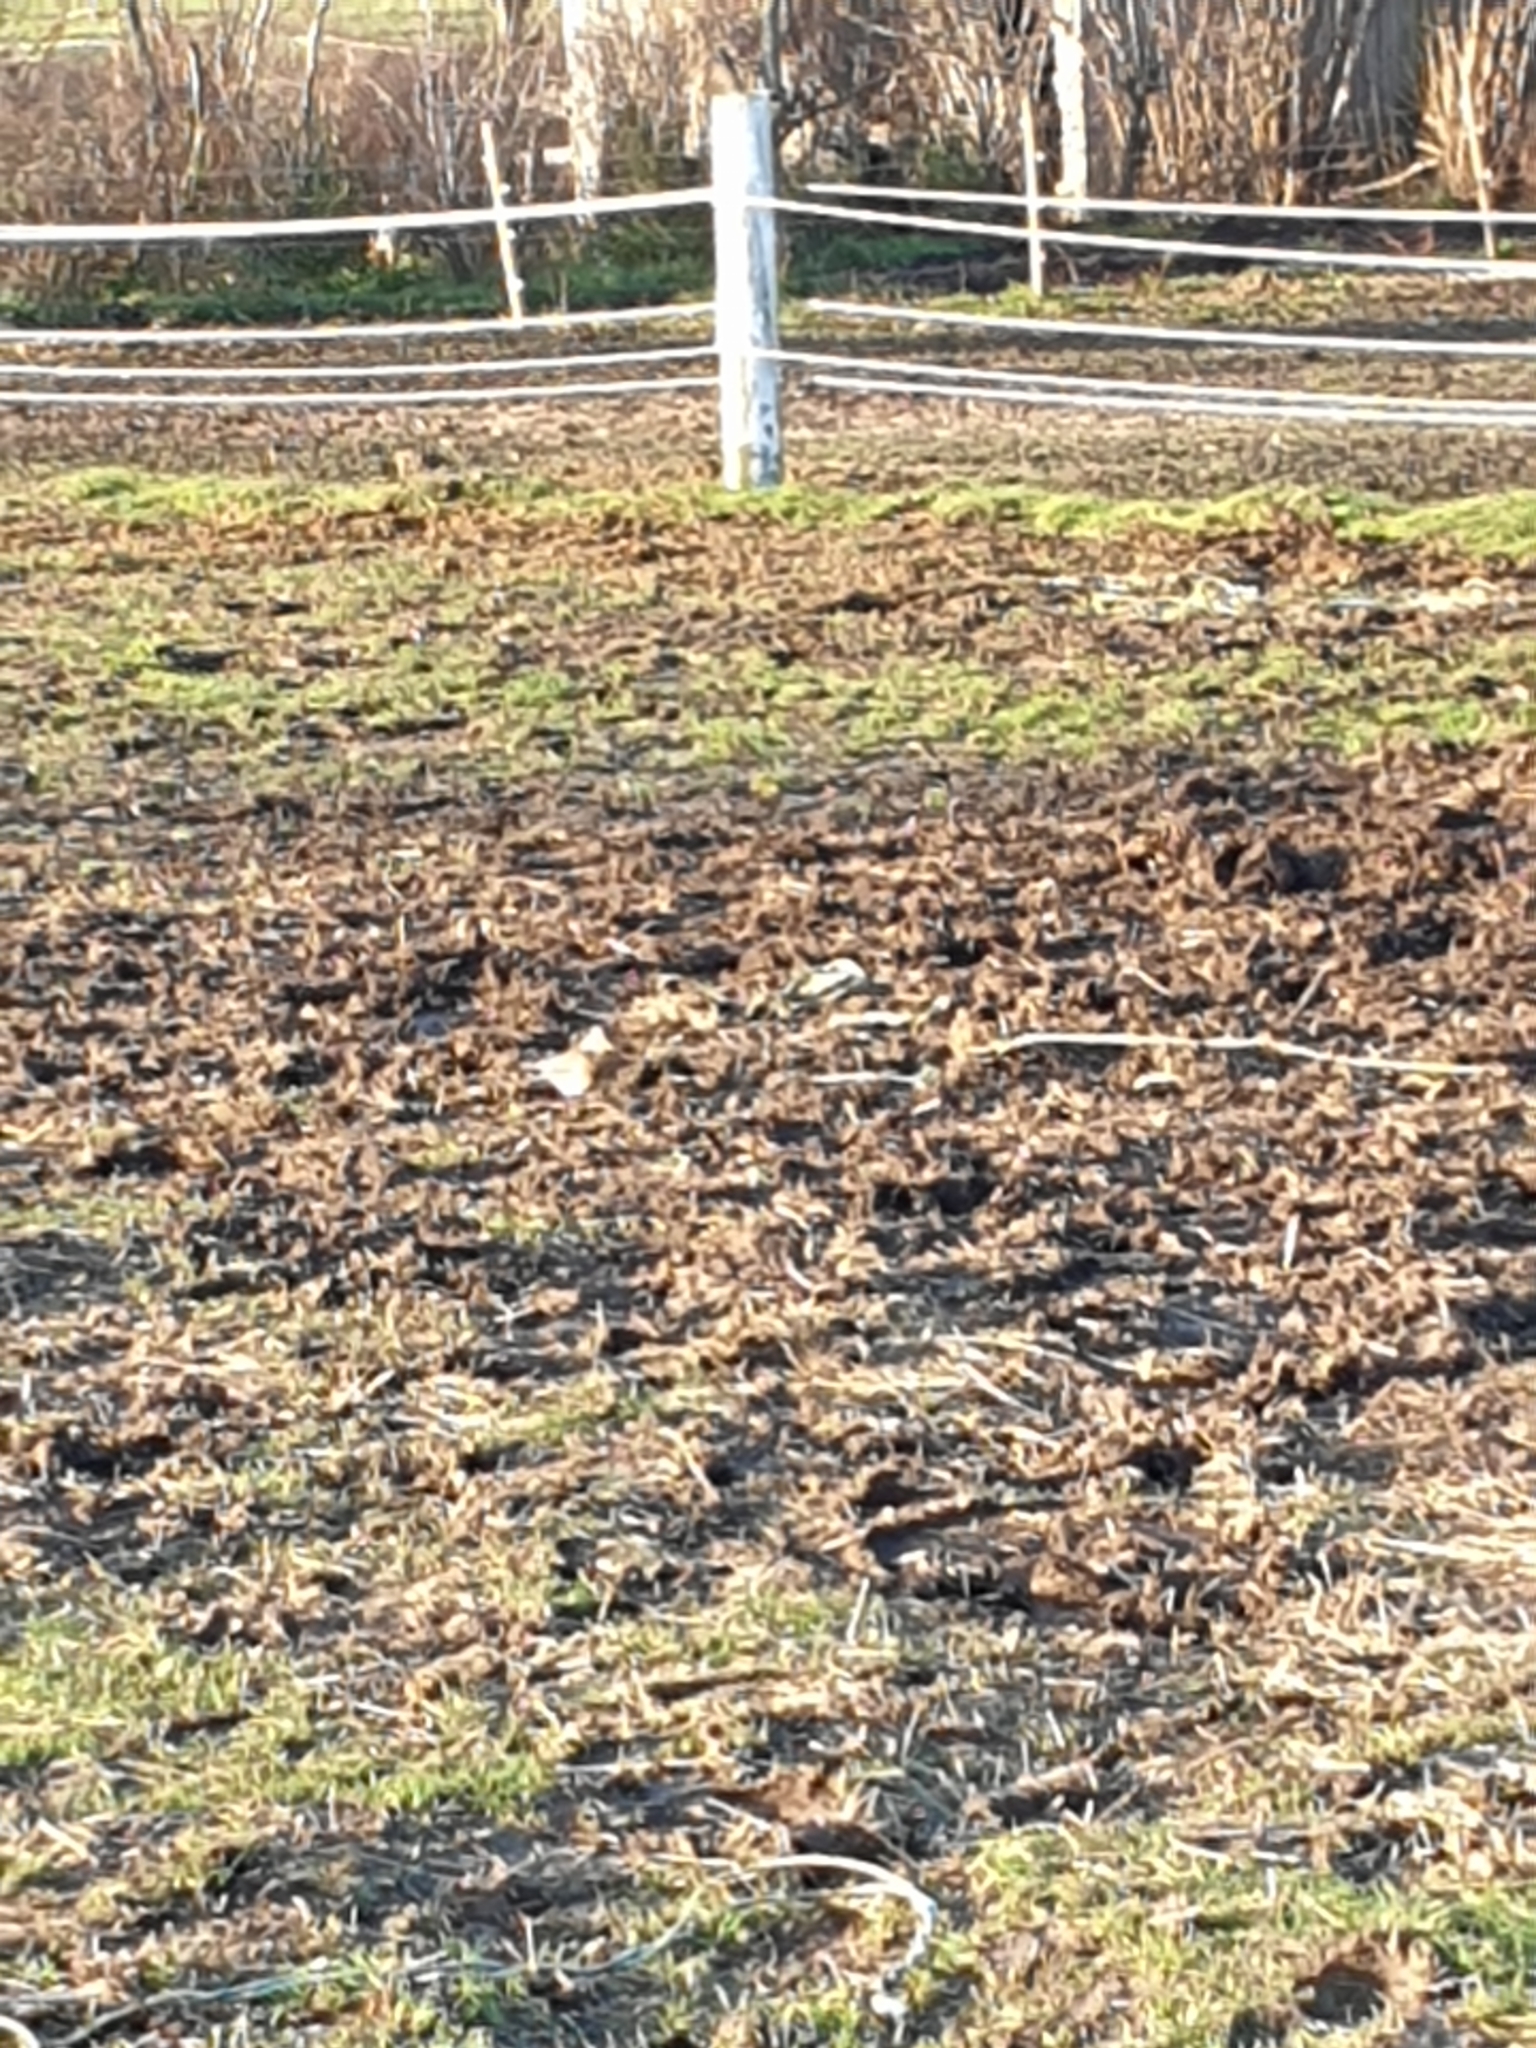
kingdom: Animalia
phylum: Chordata
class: Aves
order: Passeriformes
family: Turdidae
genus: Turdus
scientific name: Turdus pilaris
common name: Fieldfare
